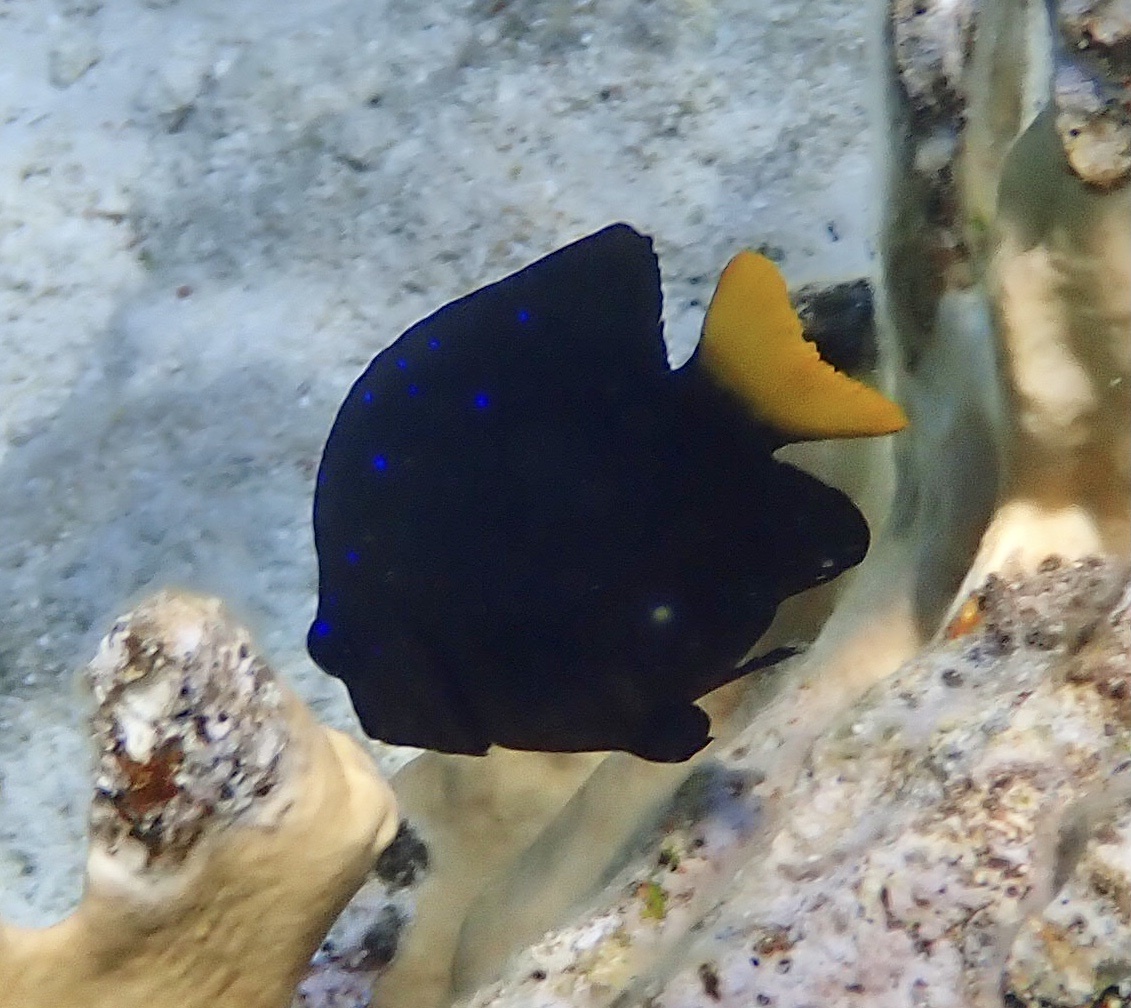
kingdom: Animalia
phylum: Chordata
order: Perciformes
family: Pomacentridae
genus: Microspathodon
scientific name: Microspathodon chrysurus
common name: Yellowtail damselfish
